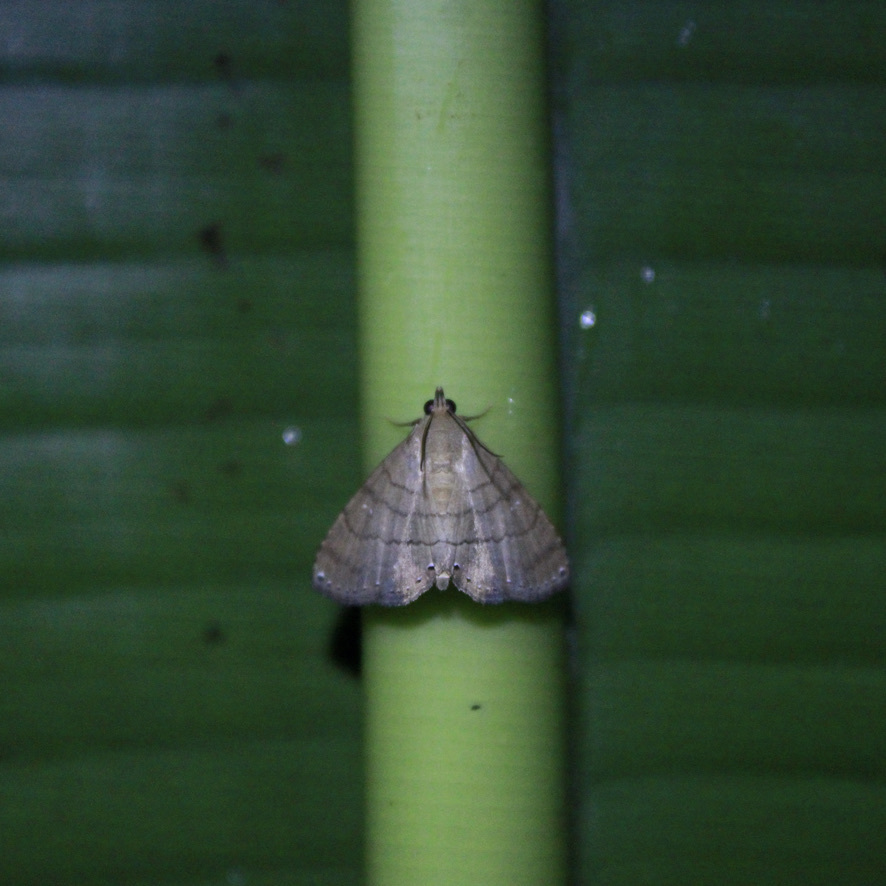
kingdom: Animalia
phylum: Arthropoda
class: Insecta
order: Lepidoptera
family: Erebidae
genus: Carteris
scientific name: Carteris oculatalis
